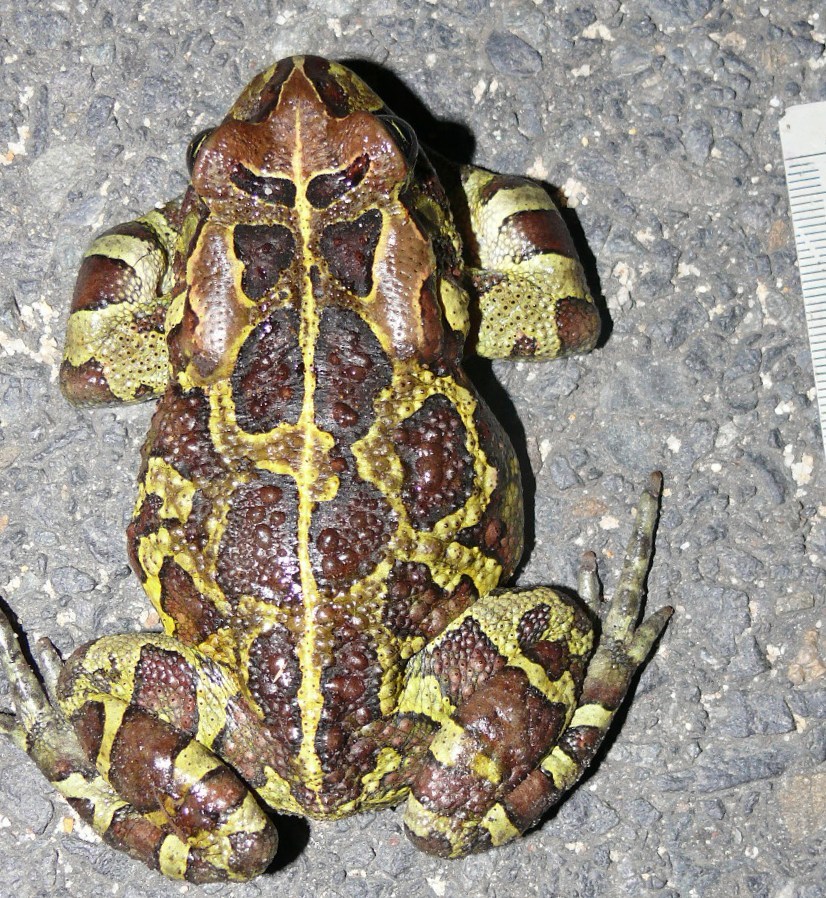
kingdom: Animalia
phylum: Chordata
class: Amphibia
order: Anura
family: Bufonidae
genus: Sclerophrys
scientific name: Sclerophrys pantherina
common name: Panther toad
